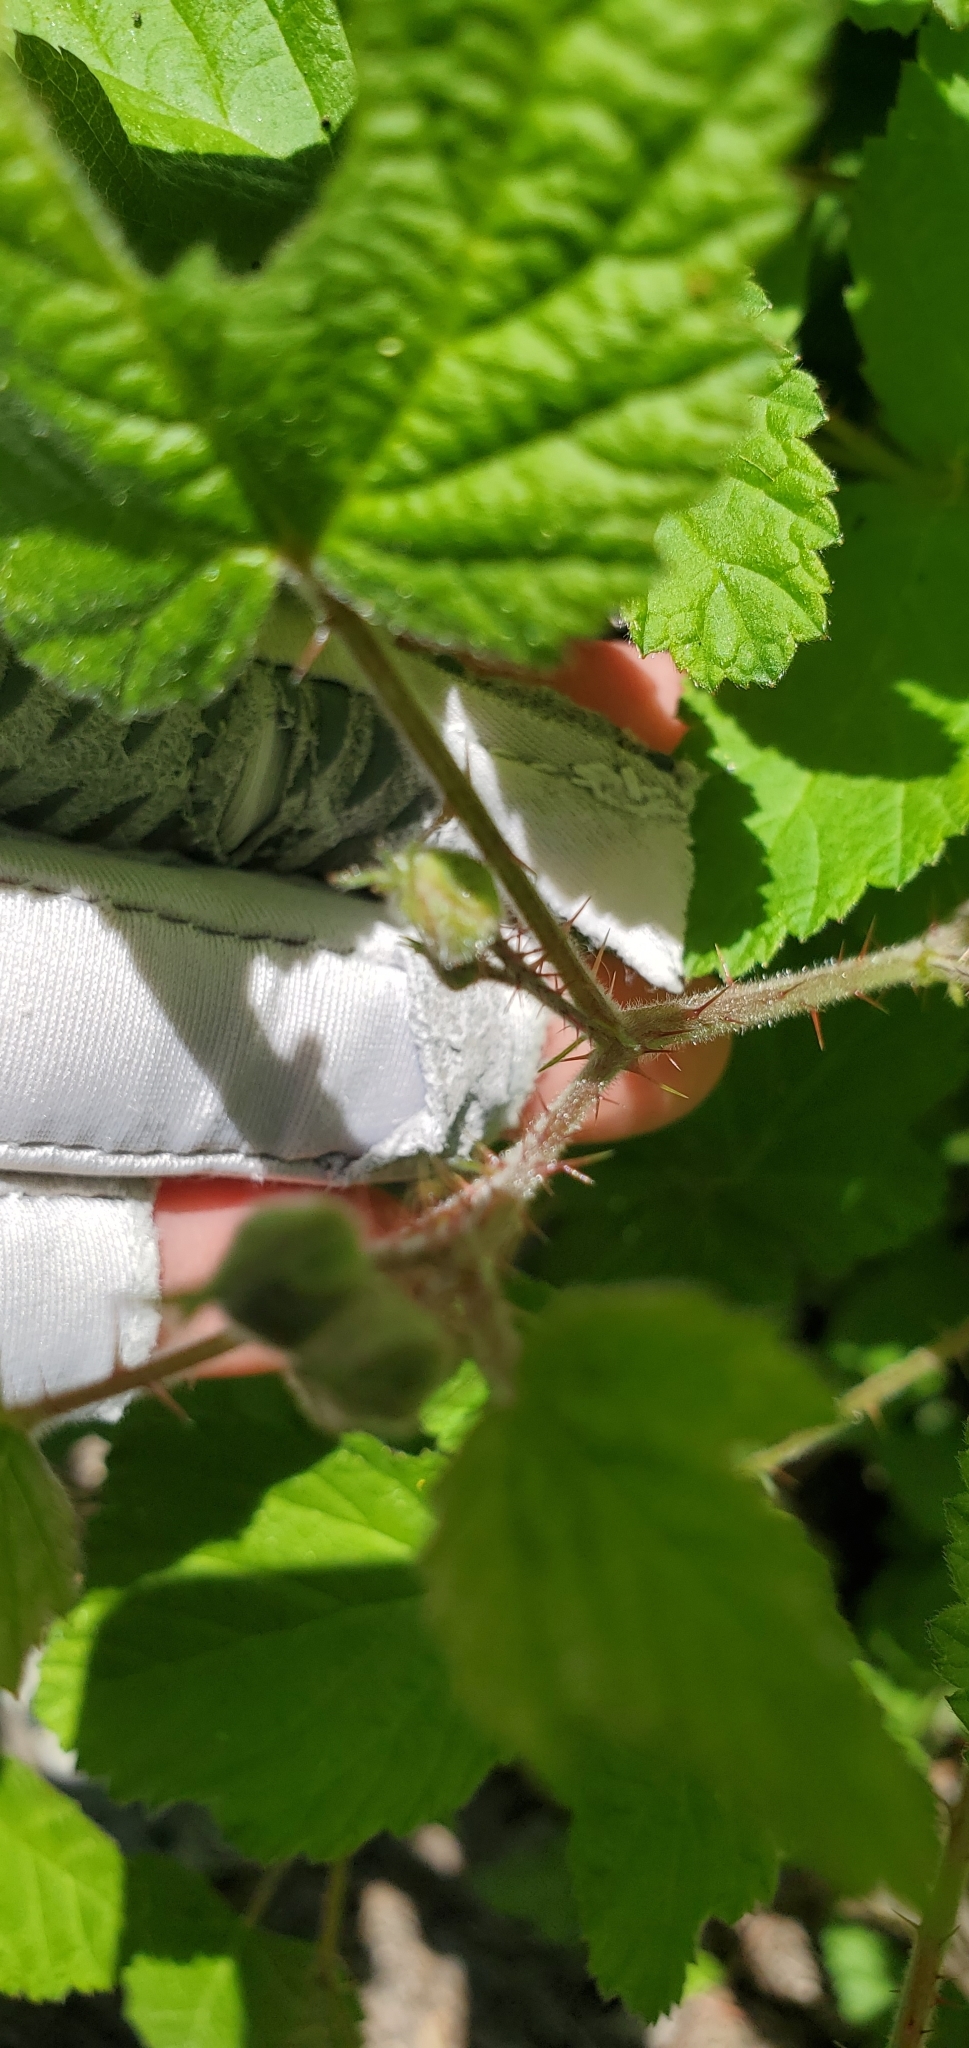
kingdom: Plantae
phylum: Tracheophyta
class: Magnoliopsida
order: Rosales
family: Rosaceae
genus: Rubus
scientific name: Rubus ursinus
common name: Pacific blackberry
